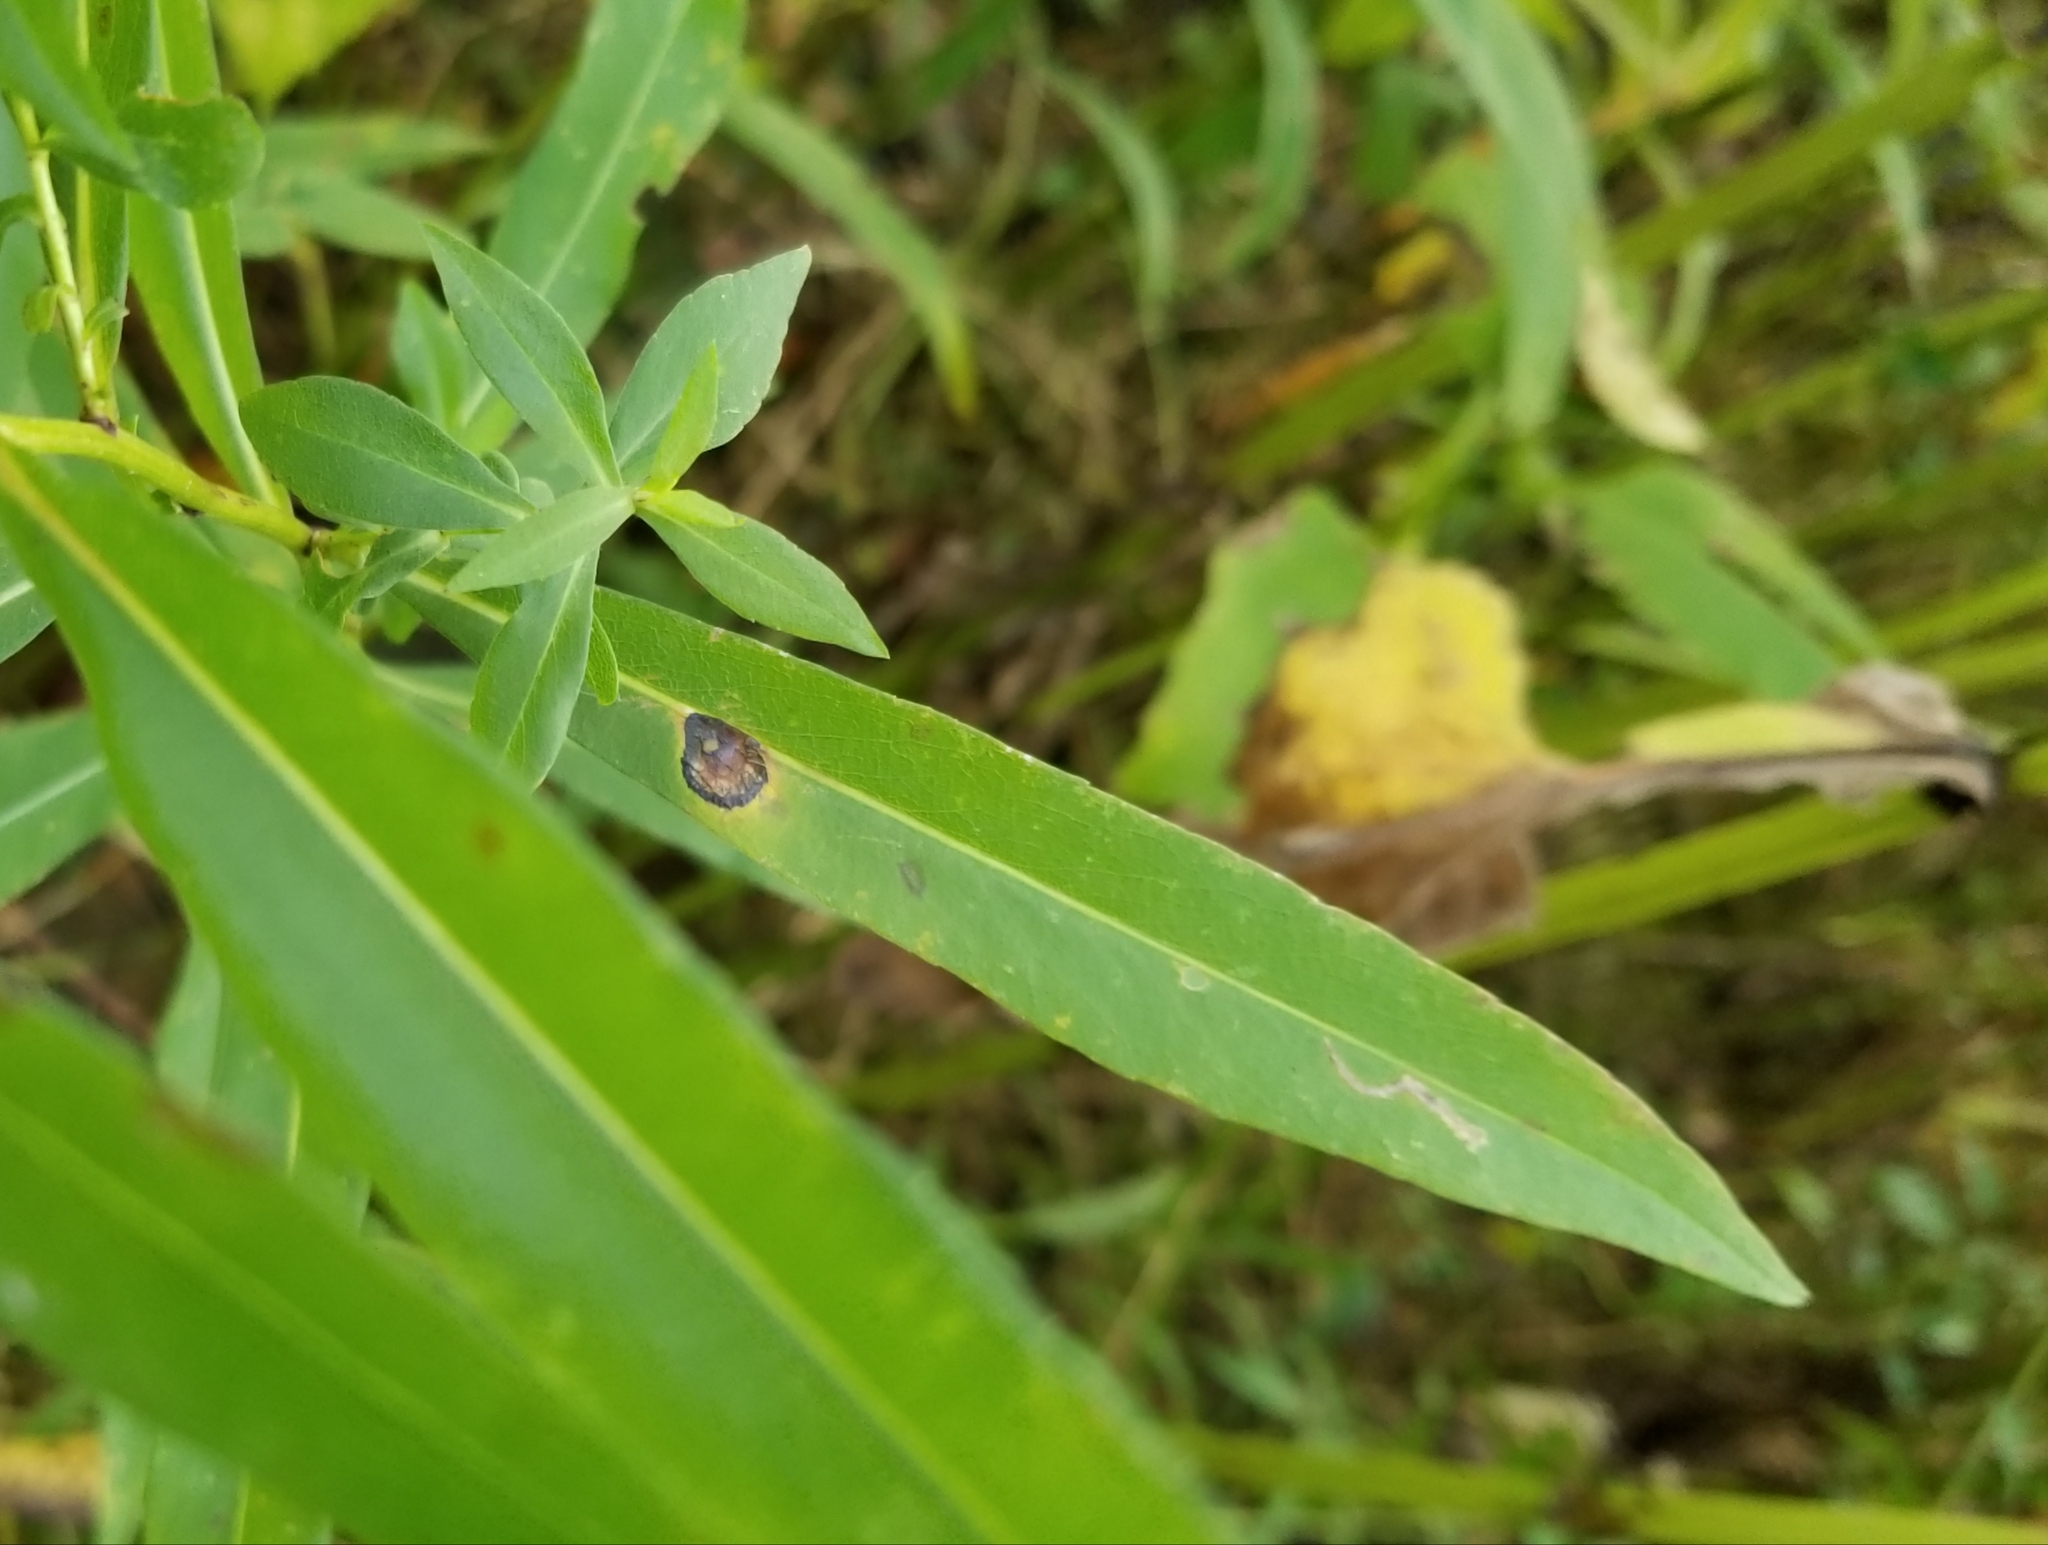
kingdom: Animalia
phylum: Arthropoda
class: Insecta
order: Diptera
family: Cecidomyiidae
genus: Asteromyia
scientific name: Asteromyia laeviana
